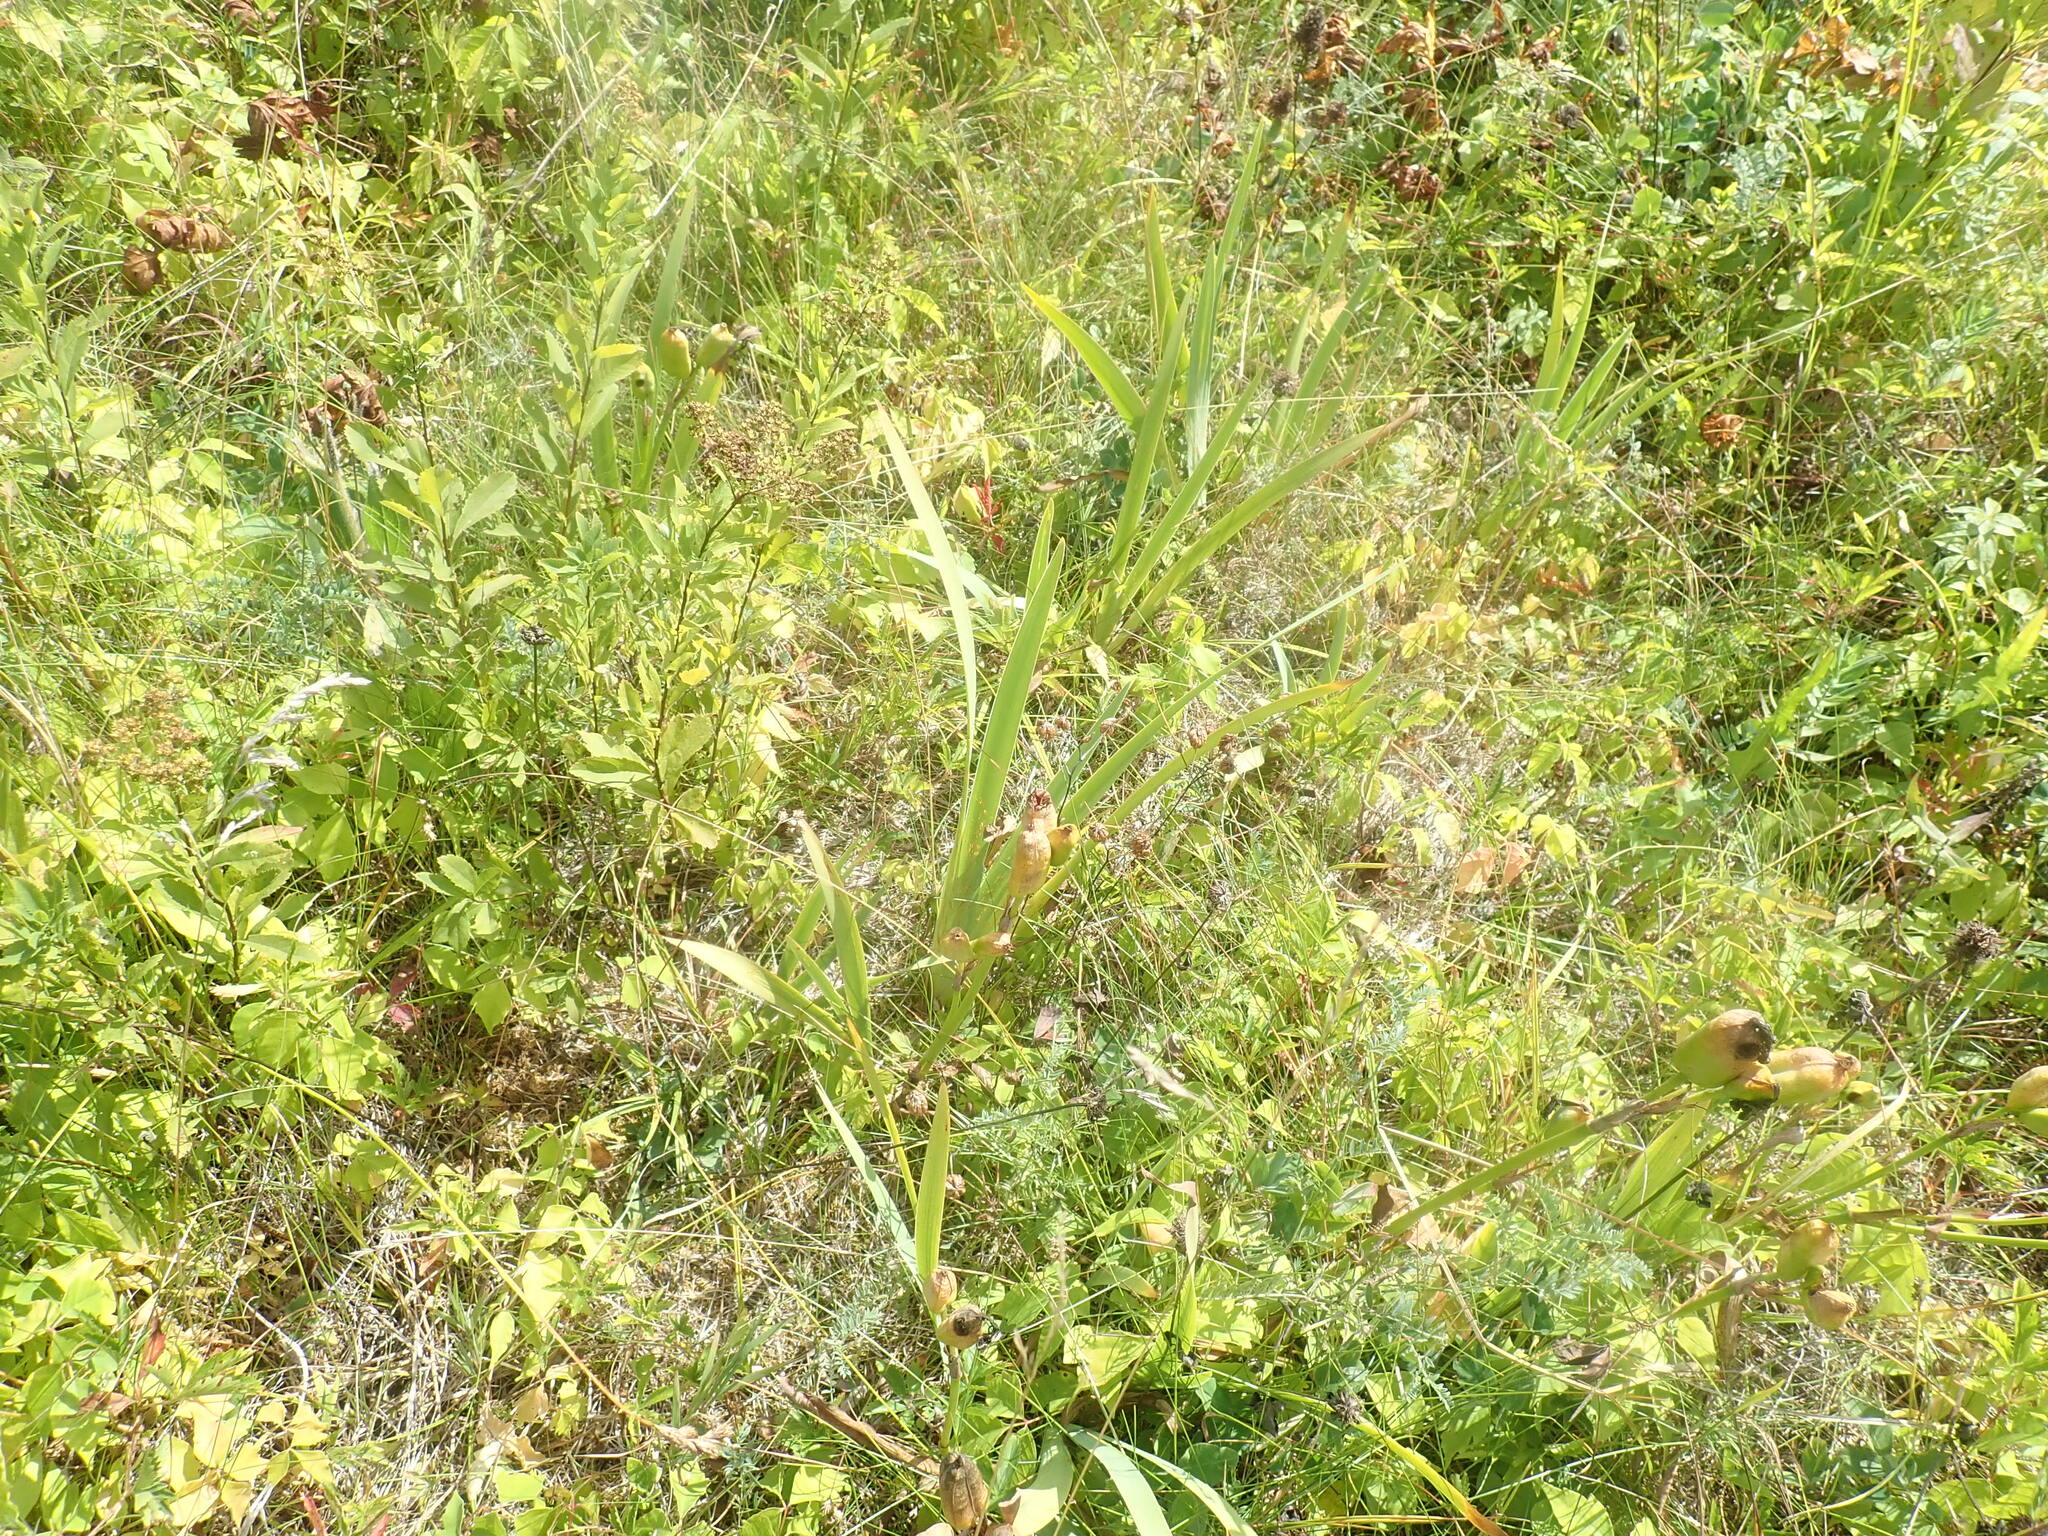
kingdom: Plantae
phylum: Tracheophyta
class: Liliopsida
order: Asparagales
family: Iridaceae
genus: Iris
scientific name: Iris
